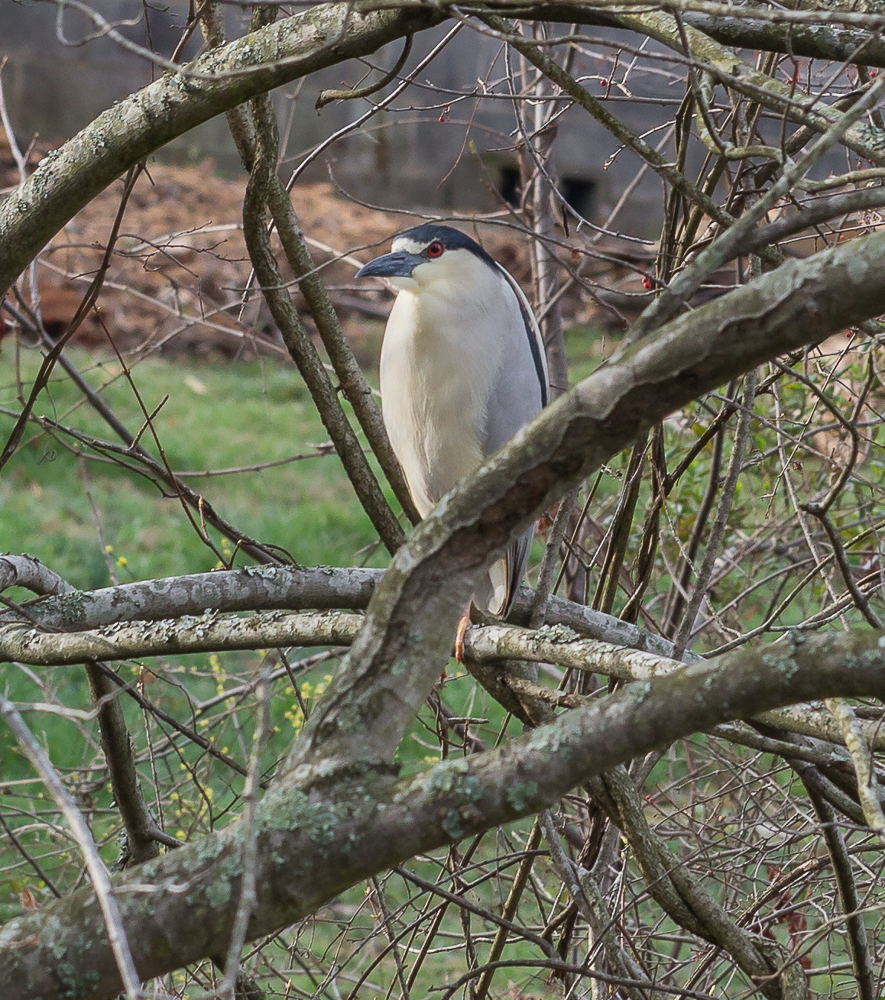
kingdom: Animalia
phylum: Chordata
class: Aves
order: Pelecaniformes
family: Ardeidae
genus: Nycticorax
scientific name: Nycticorax nycticorax
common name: Black-crowned night heron
